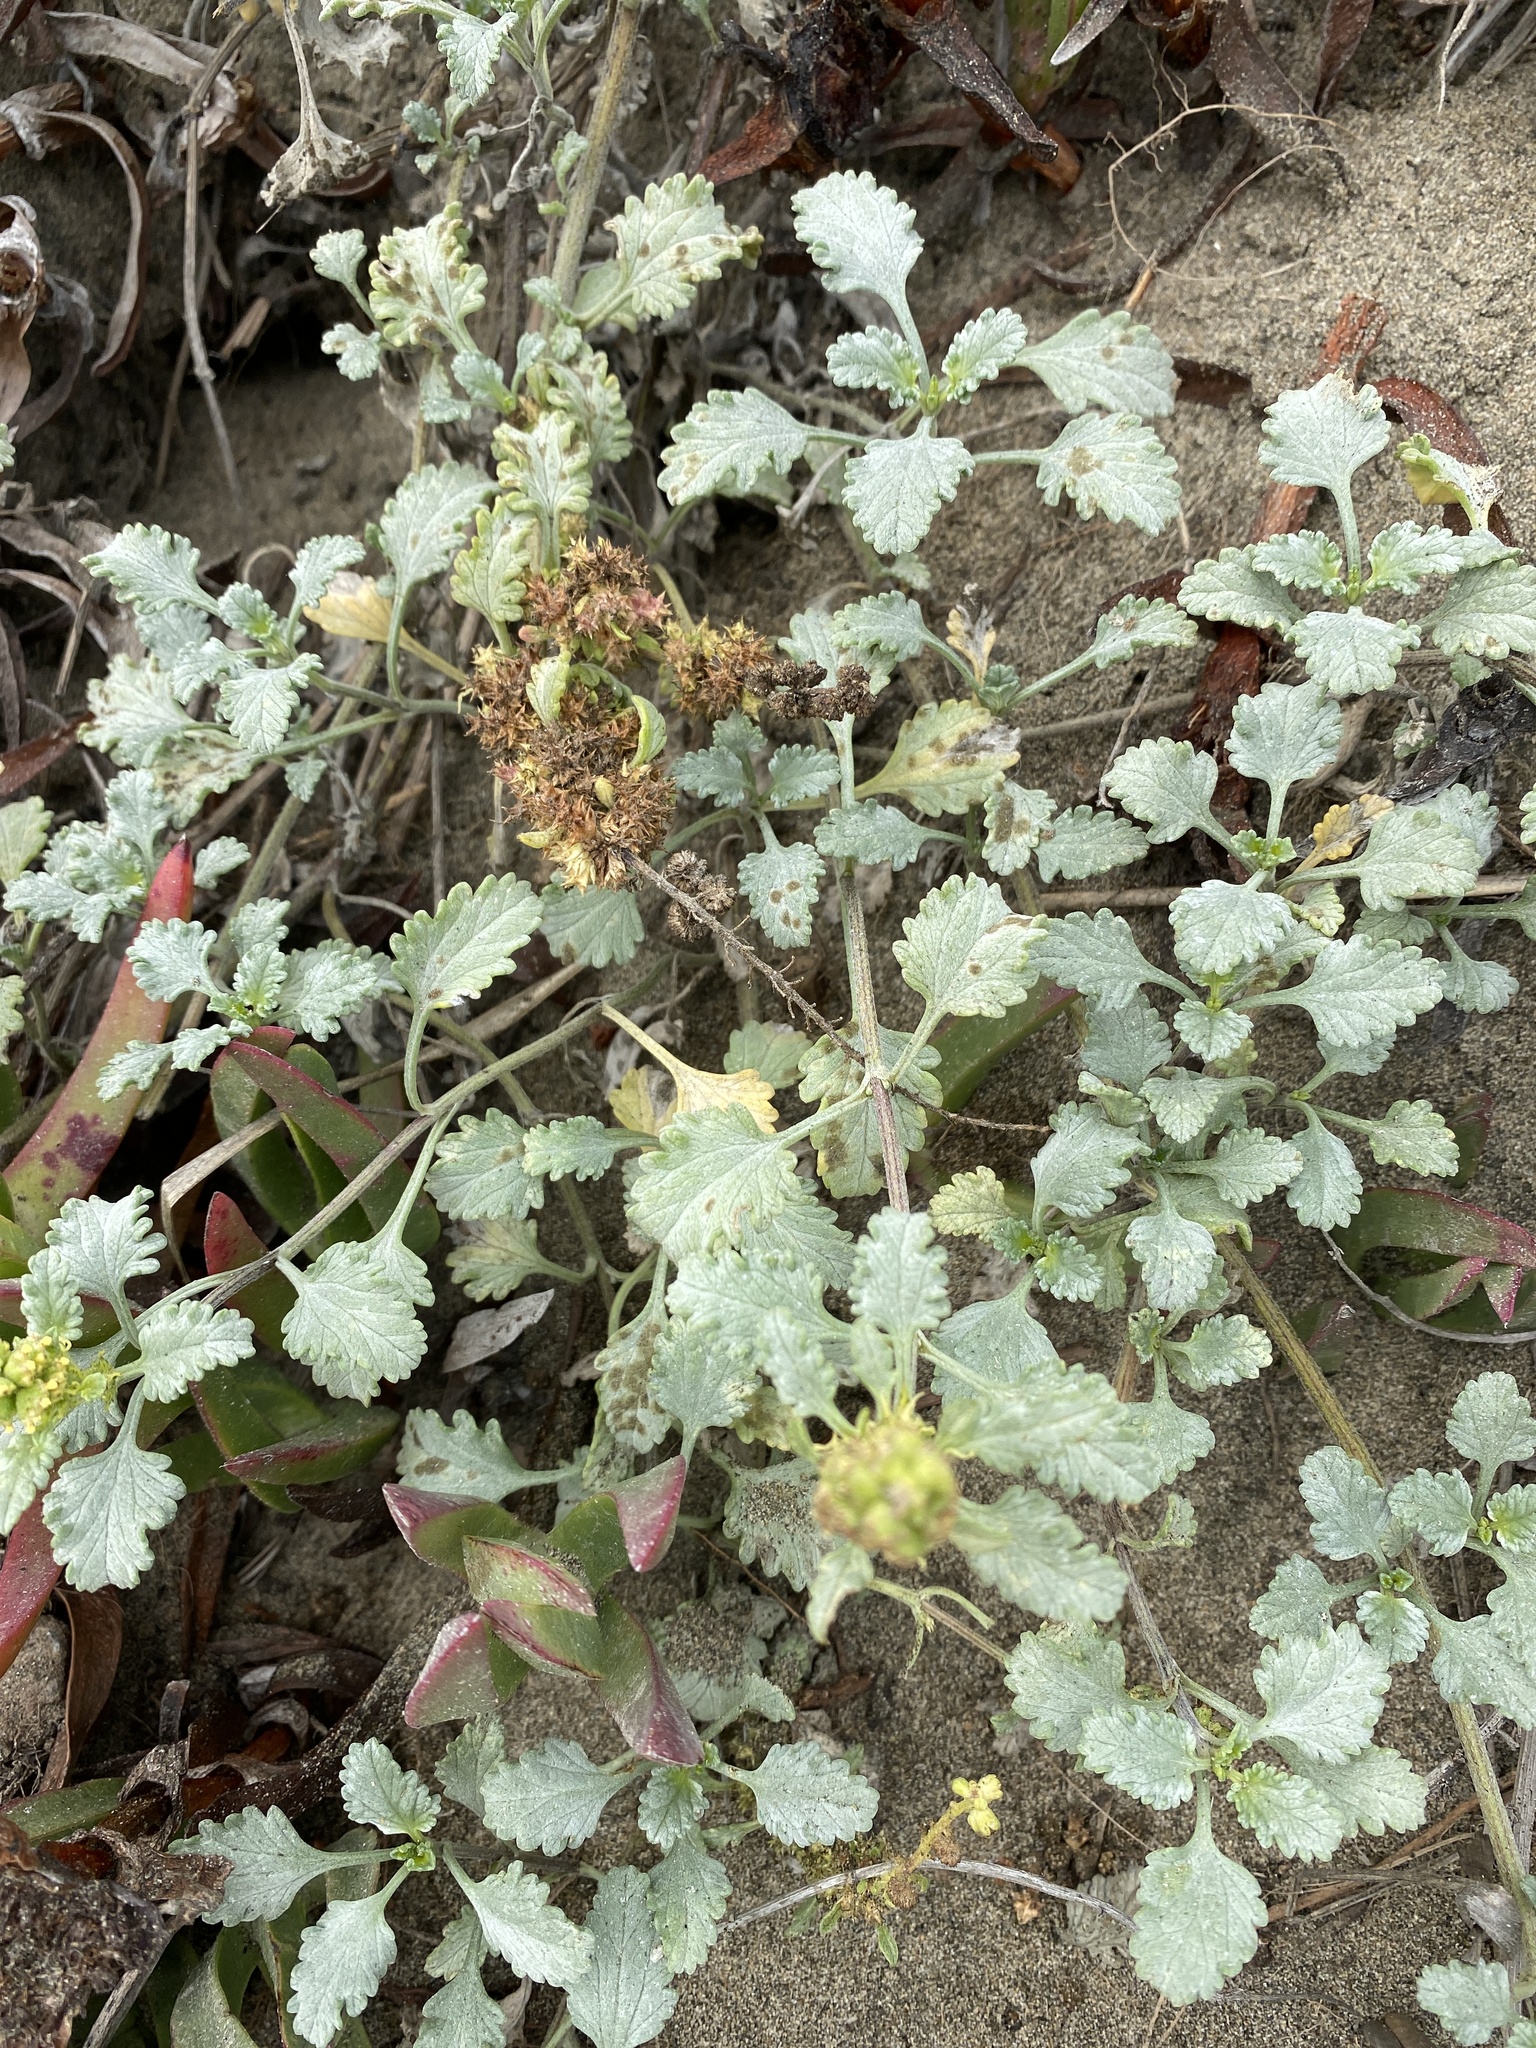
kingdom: Plantae
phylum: Tracheophyta
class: Magnoliopsida
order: Asterales
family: Asteraceae
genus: Ambrosia
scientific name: Ambrosia chamissonis
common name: Beachbur
